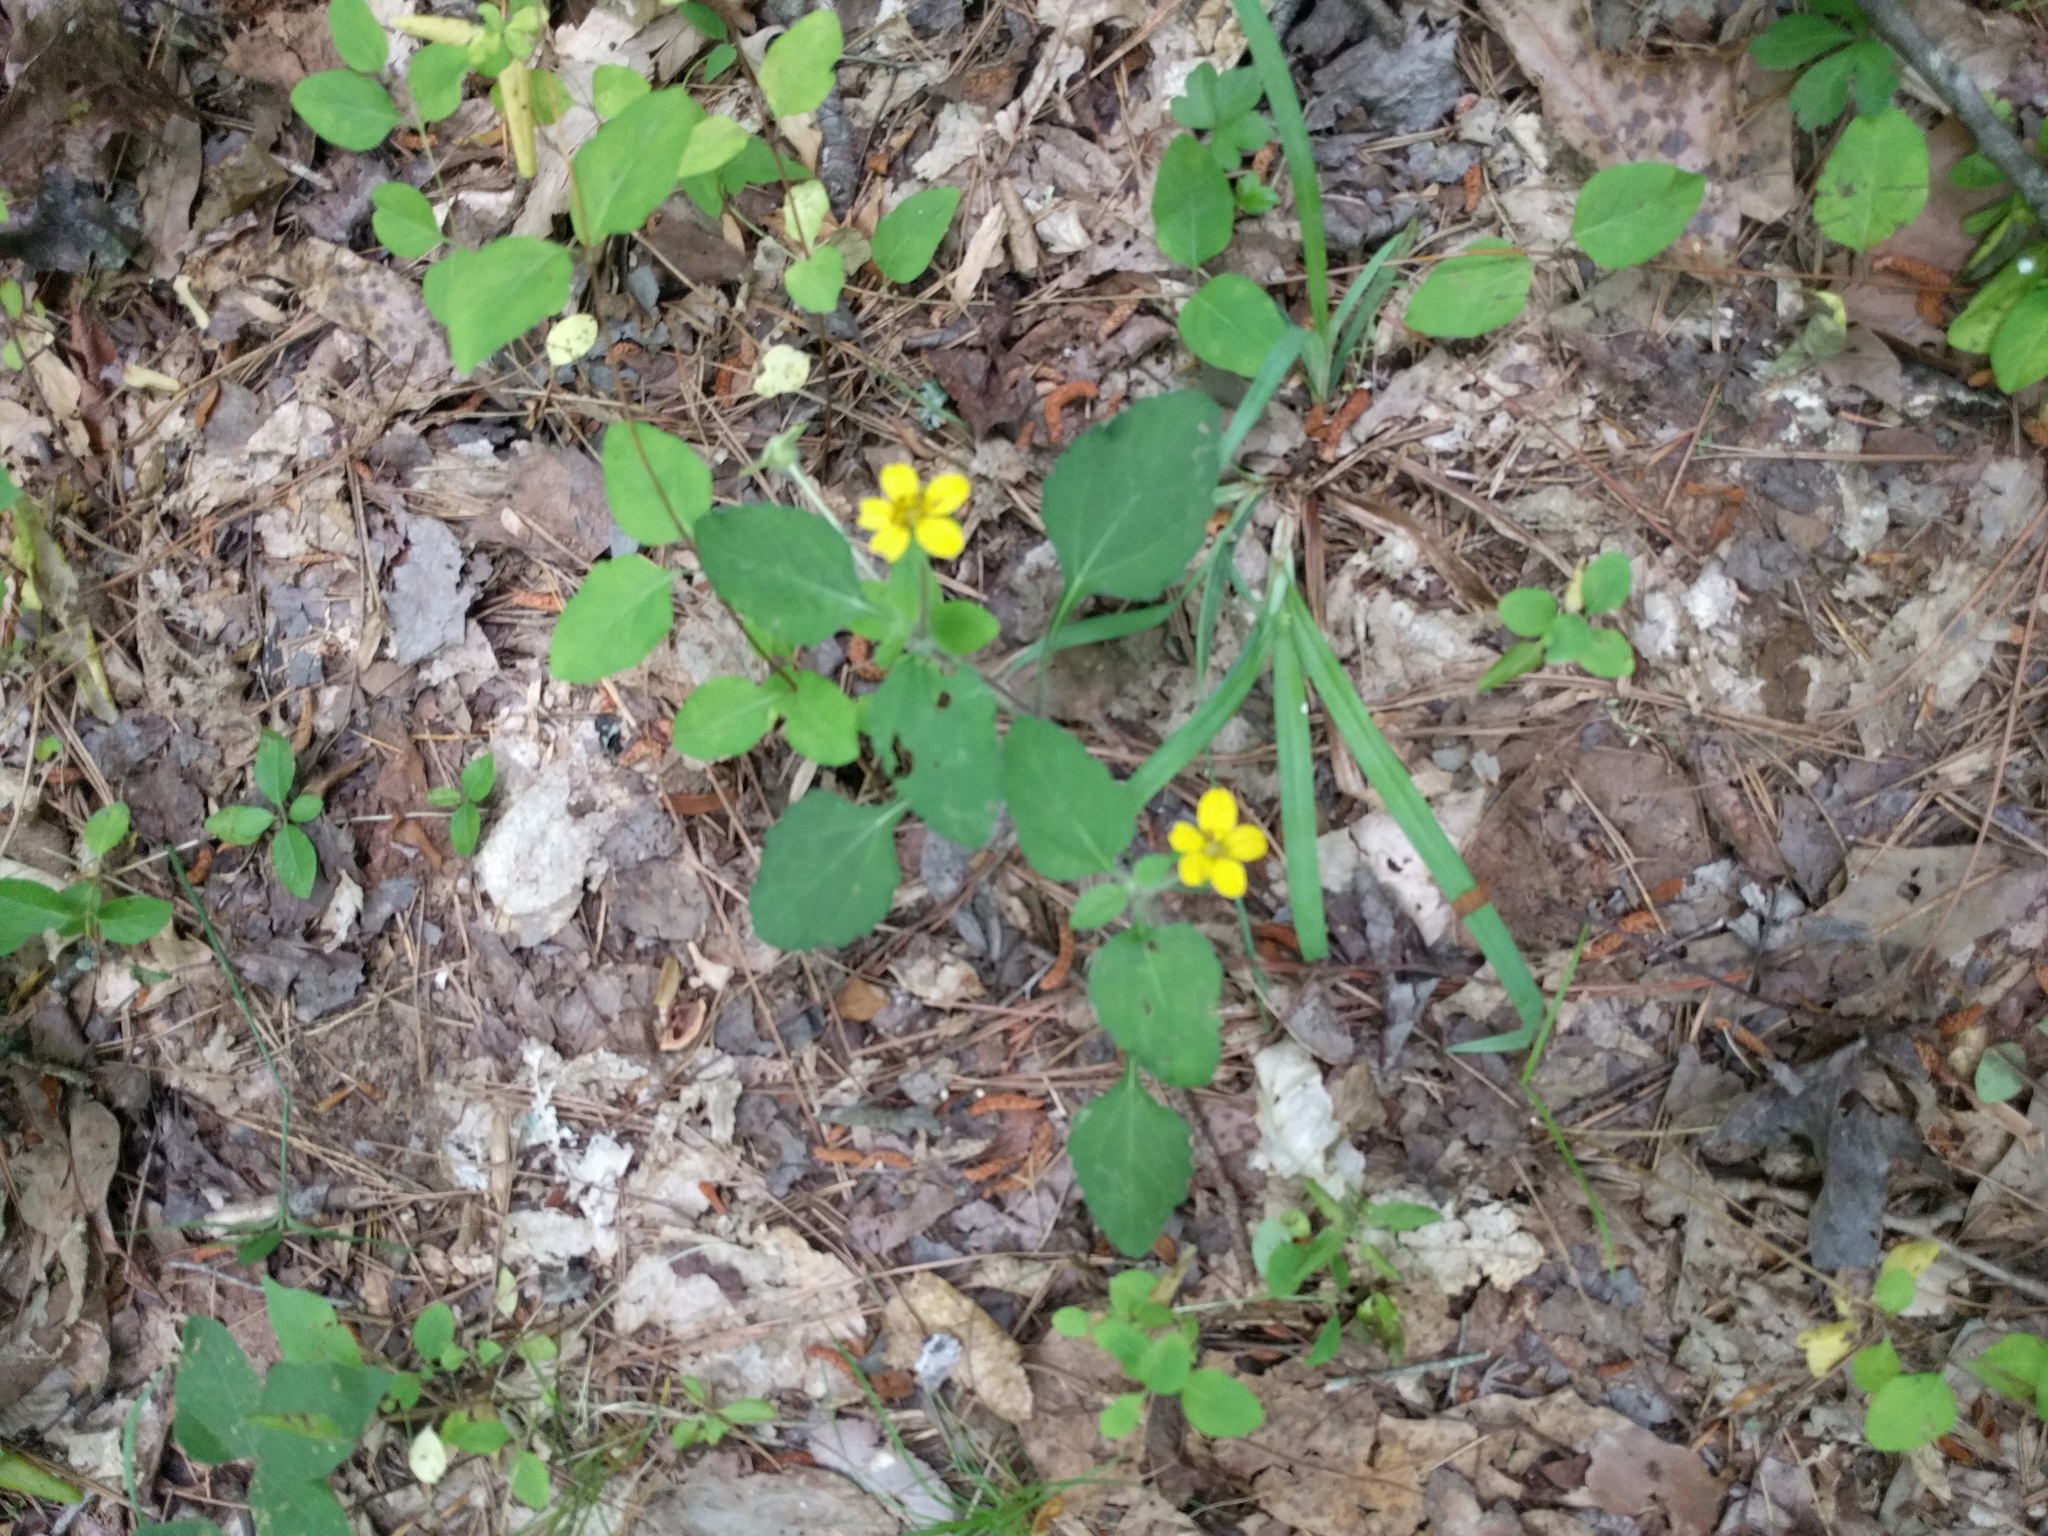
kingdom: Plantae
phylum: Tracheophyta
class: Magnoliopsida
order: Asterales
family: Asteraceae
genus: Chrysogonum
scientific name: Chrysogonum virginianum
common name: Golden-knee
